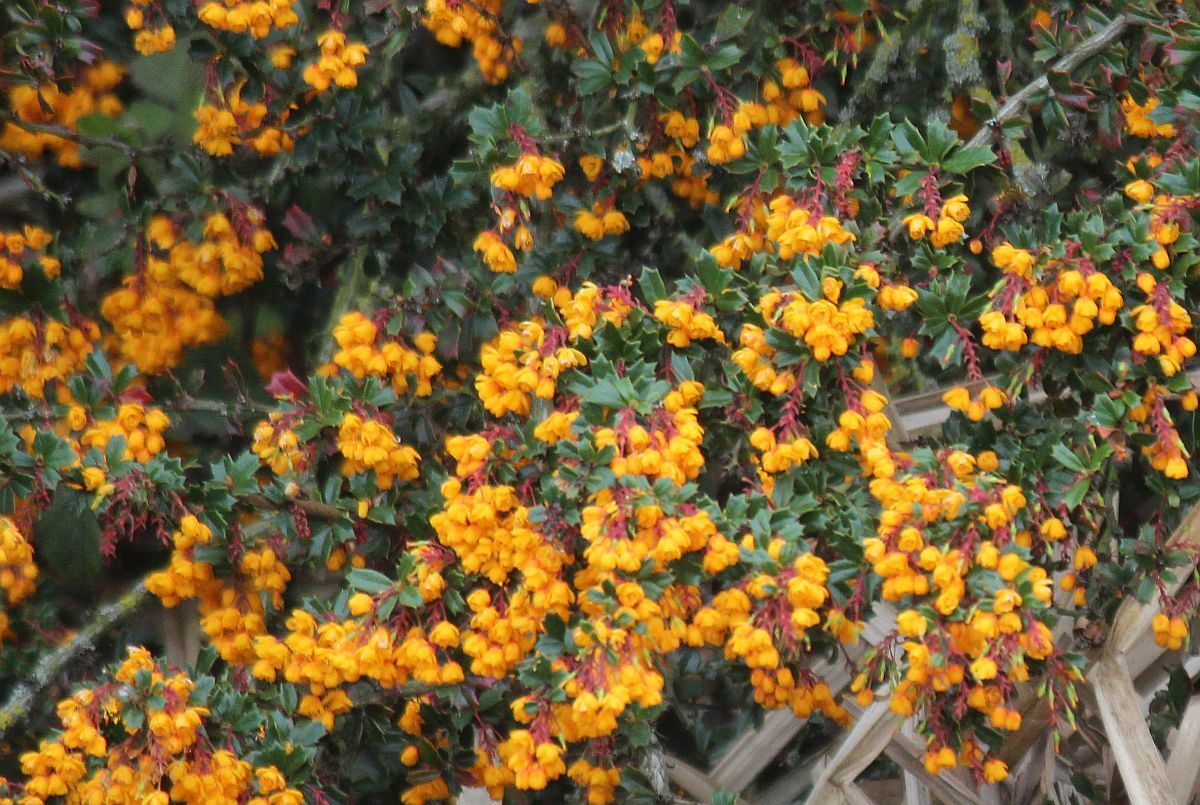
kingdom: Plantae
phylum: Tracheophyta
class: Magnoliopsida
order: Ranunculales
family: Berberidaceae
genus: Berberis
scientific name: Berberis darwinii
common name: Darwin's barberry
